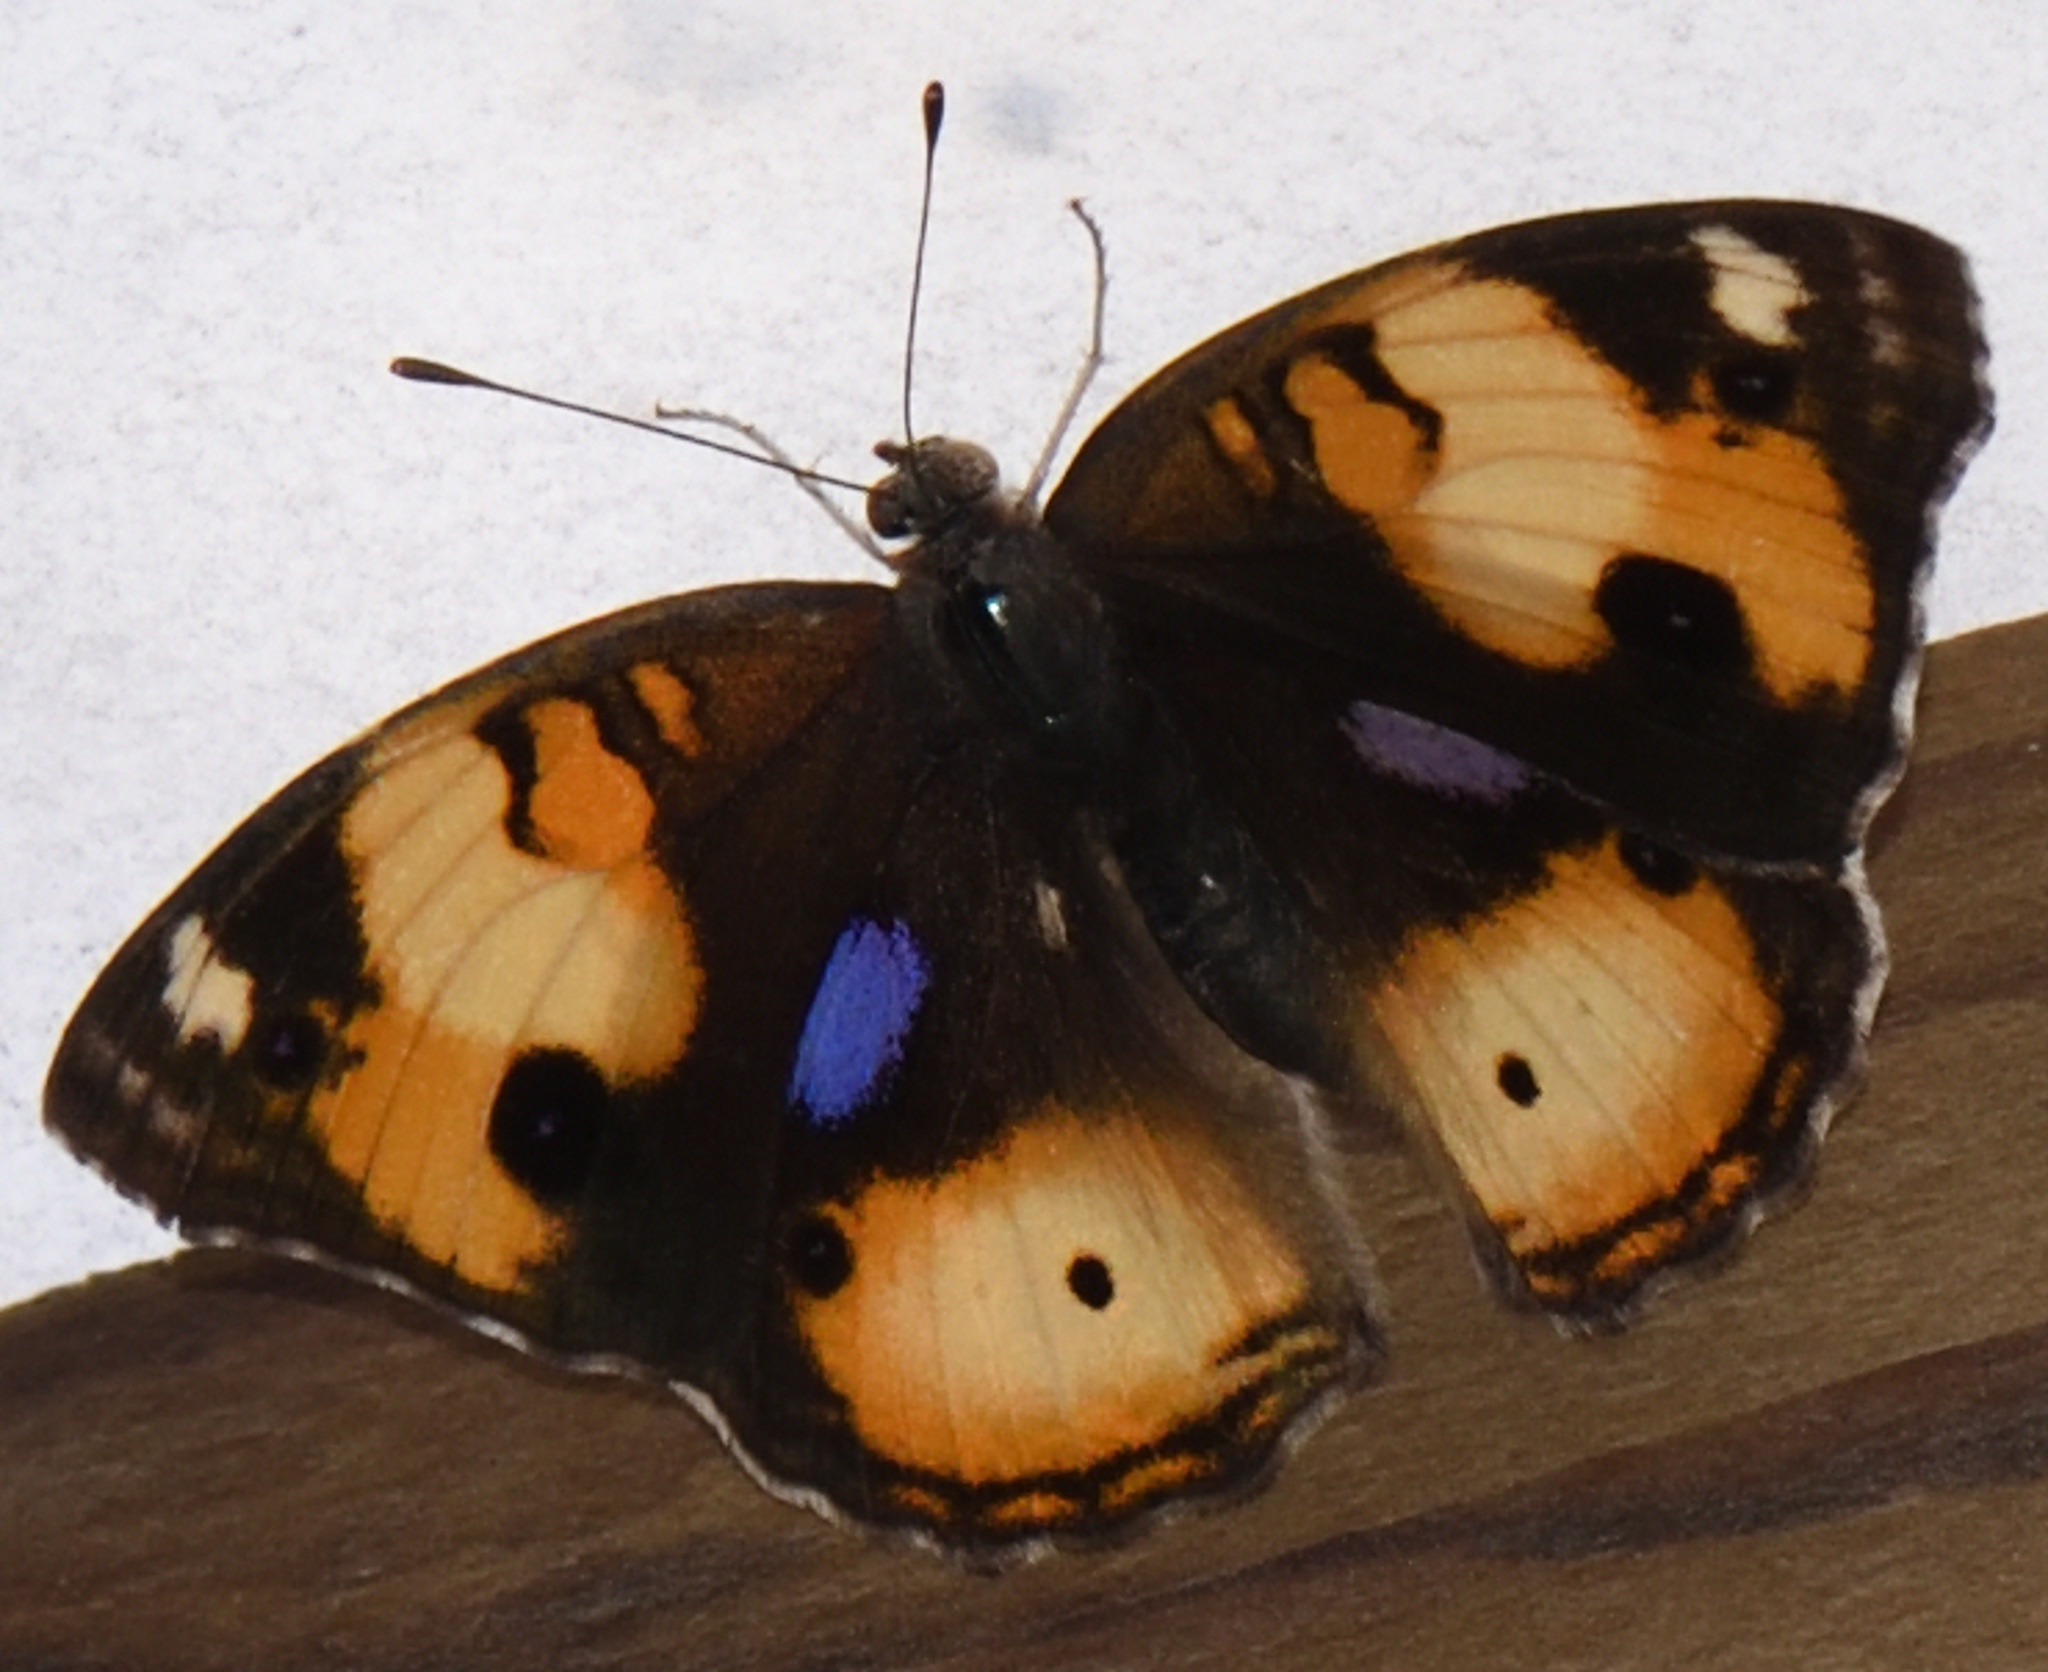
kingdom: Animalia
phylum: Arthropoda
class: Insecta
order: Lepidoptera
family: Nymphalidae
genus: Junonia
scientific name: Junonia hierta
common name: Yellow pansy
